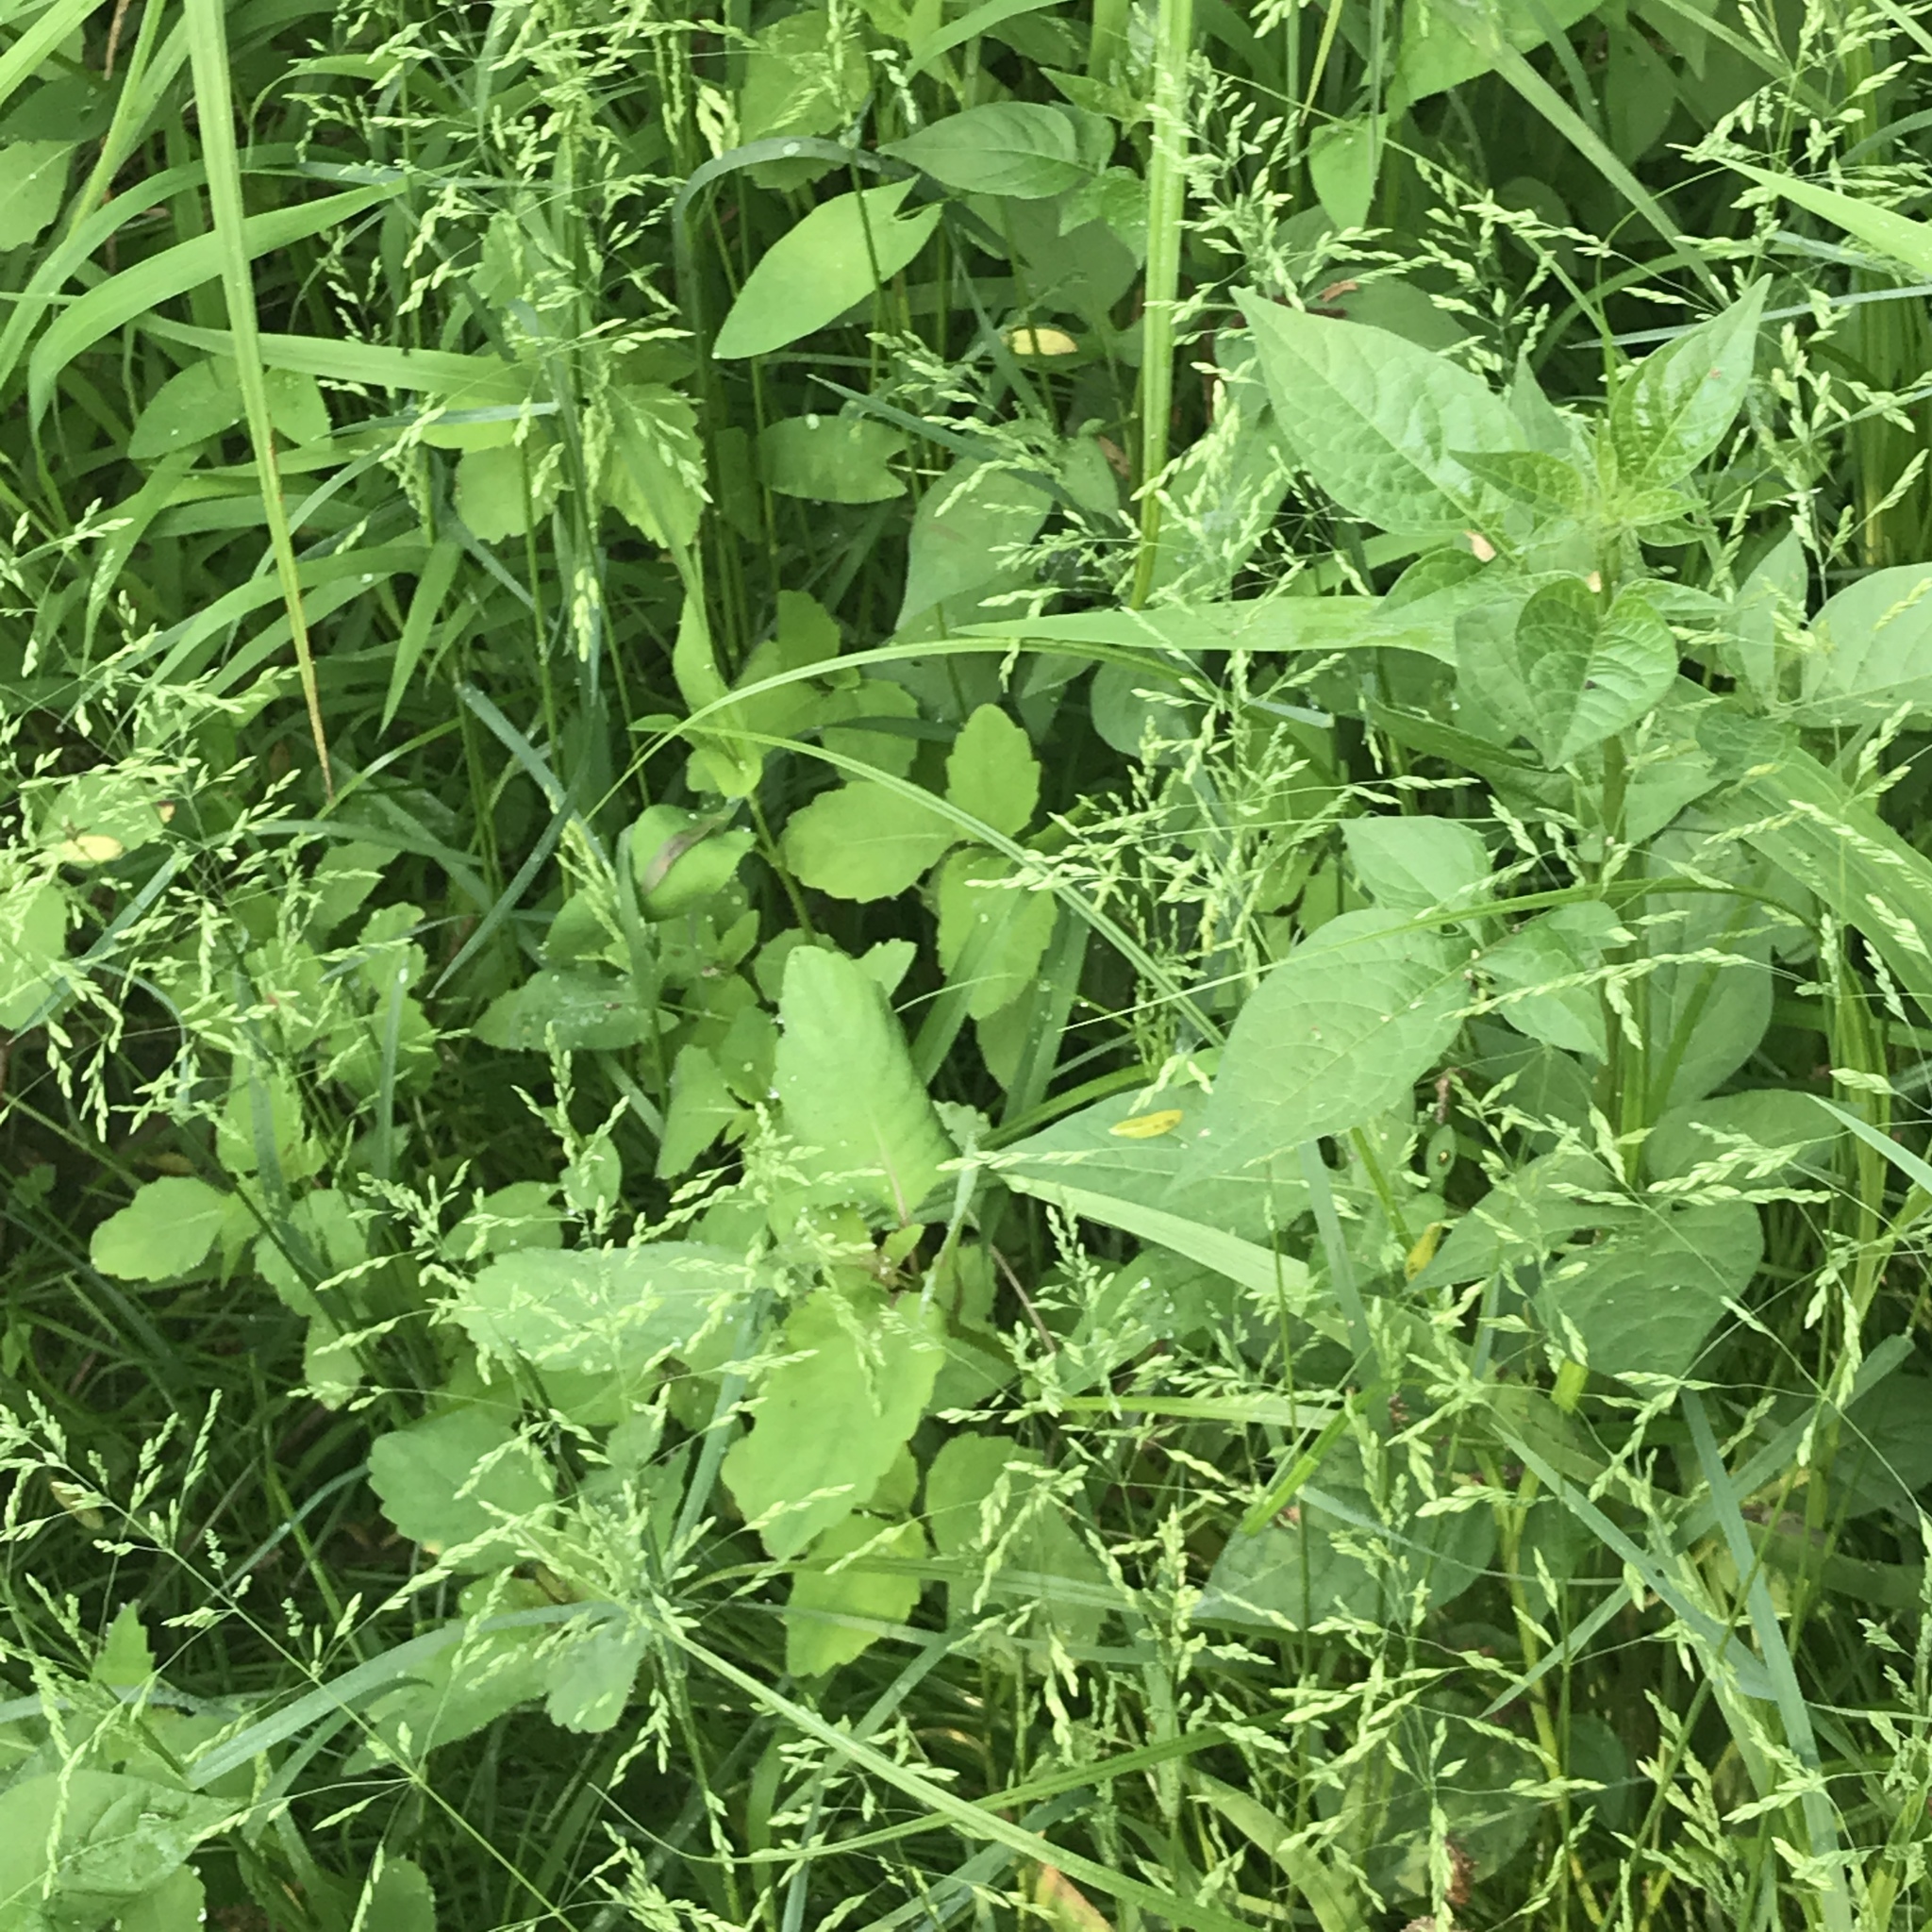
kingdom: Plantae
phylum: Tracheophyta
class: Magnoliopsida
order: Solanales
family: Solanaceae
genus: Solanum
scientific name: Solanum dulcamara
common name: Climbing nightshade
